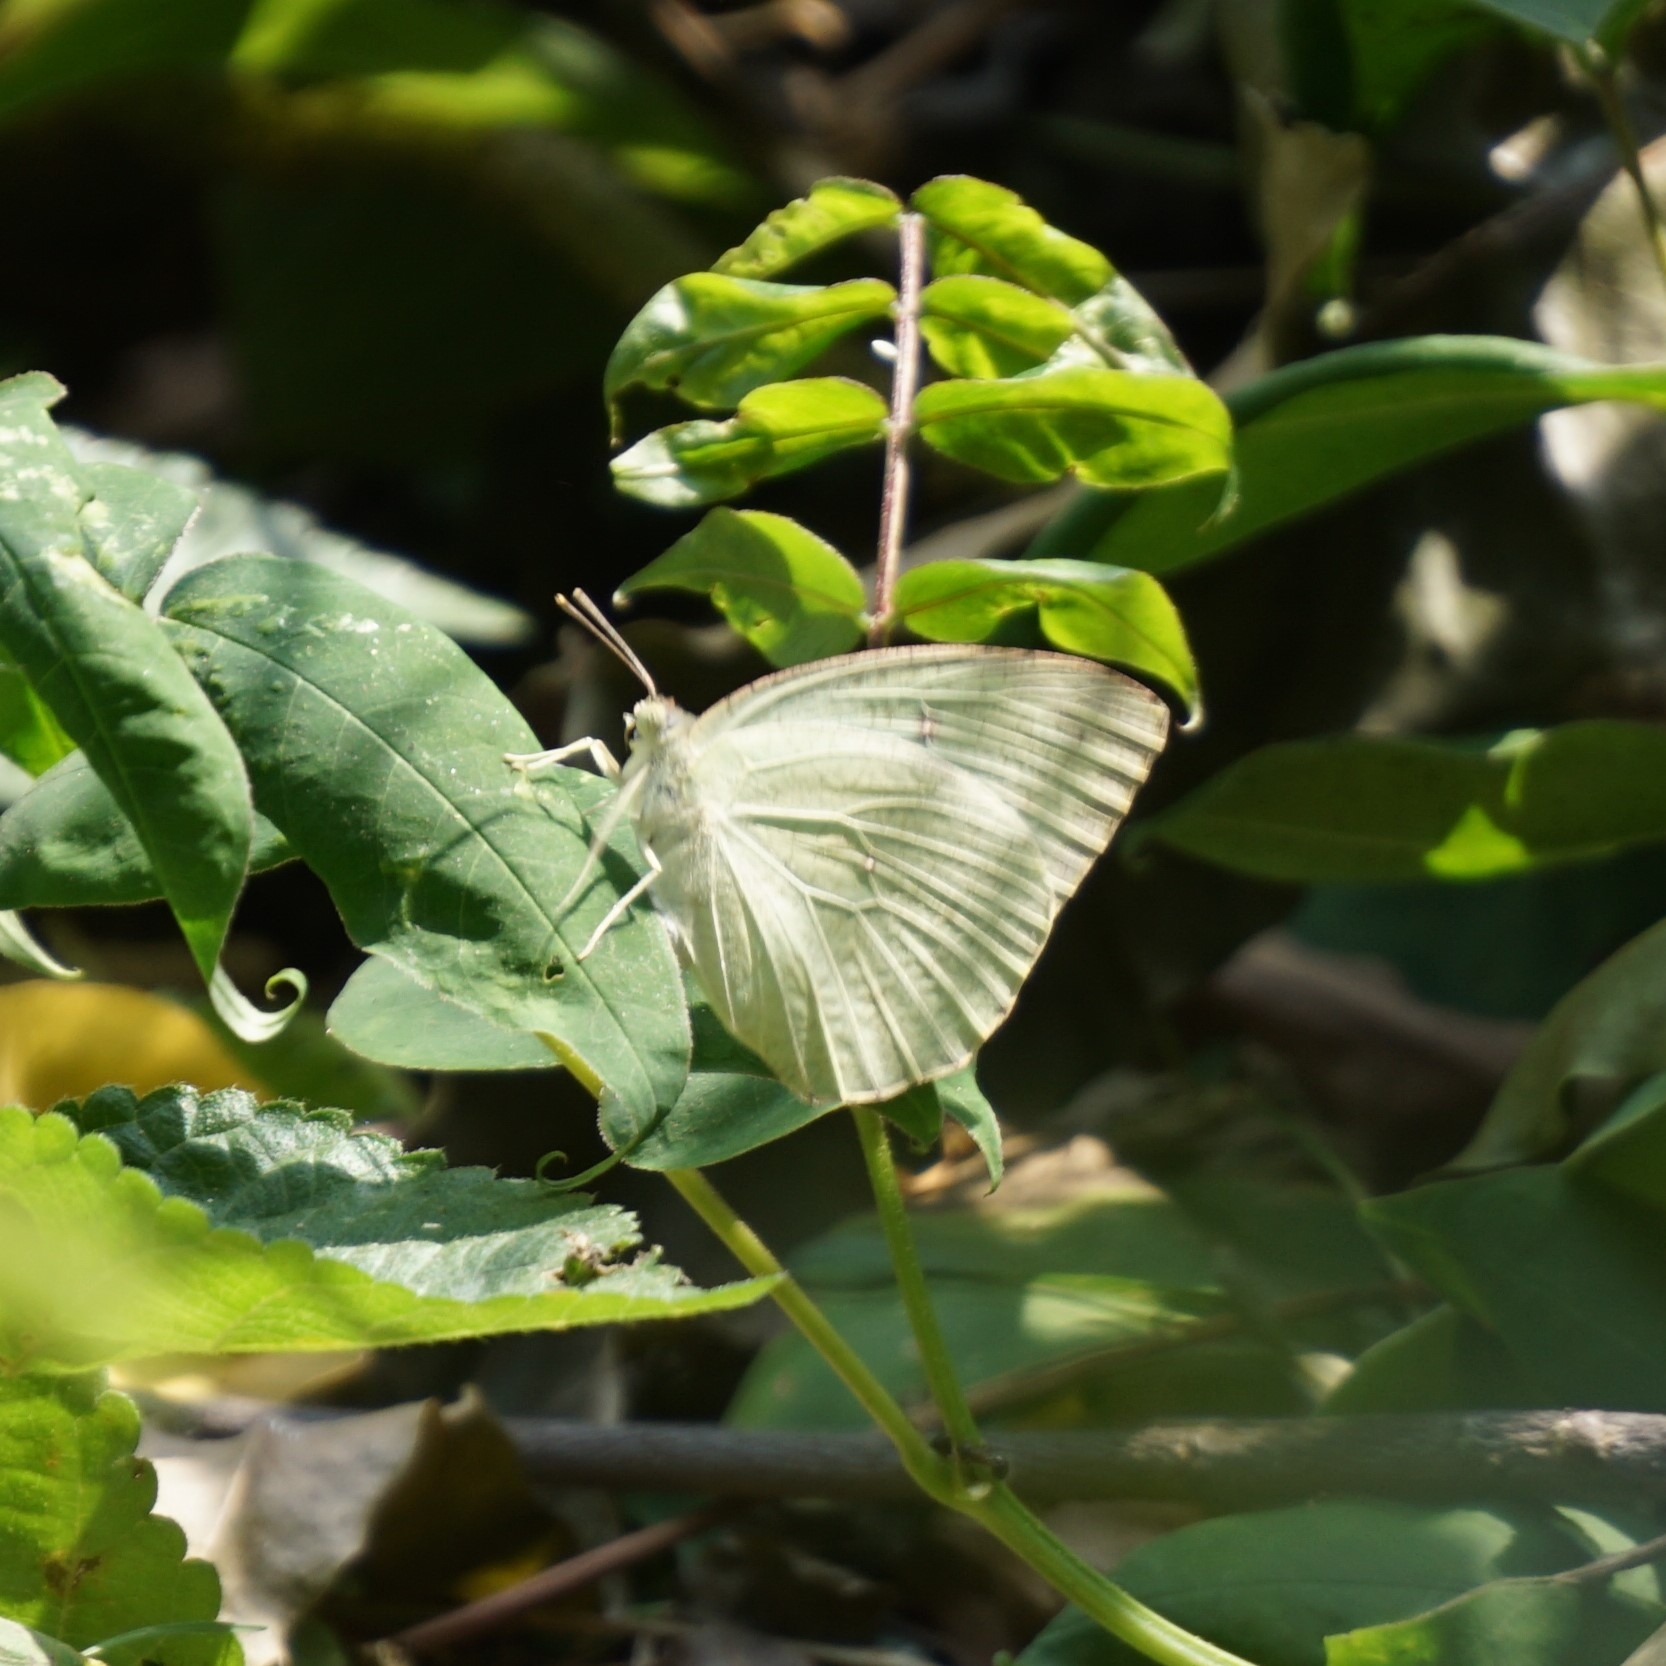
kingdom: Animalia
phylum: Arthropoda
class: Insecta
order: Lepidoptera
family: Pieridae
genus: Catopsilia
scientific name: Catopsilia pyranthe
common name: Mottled emigrant
